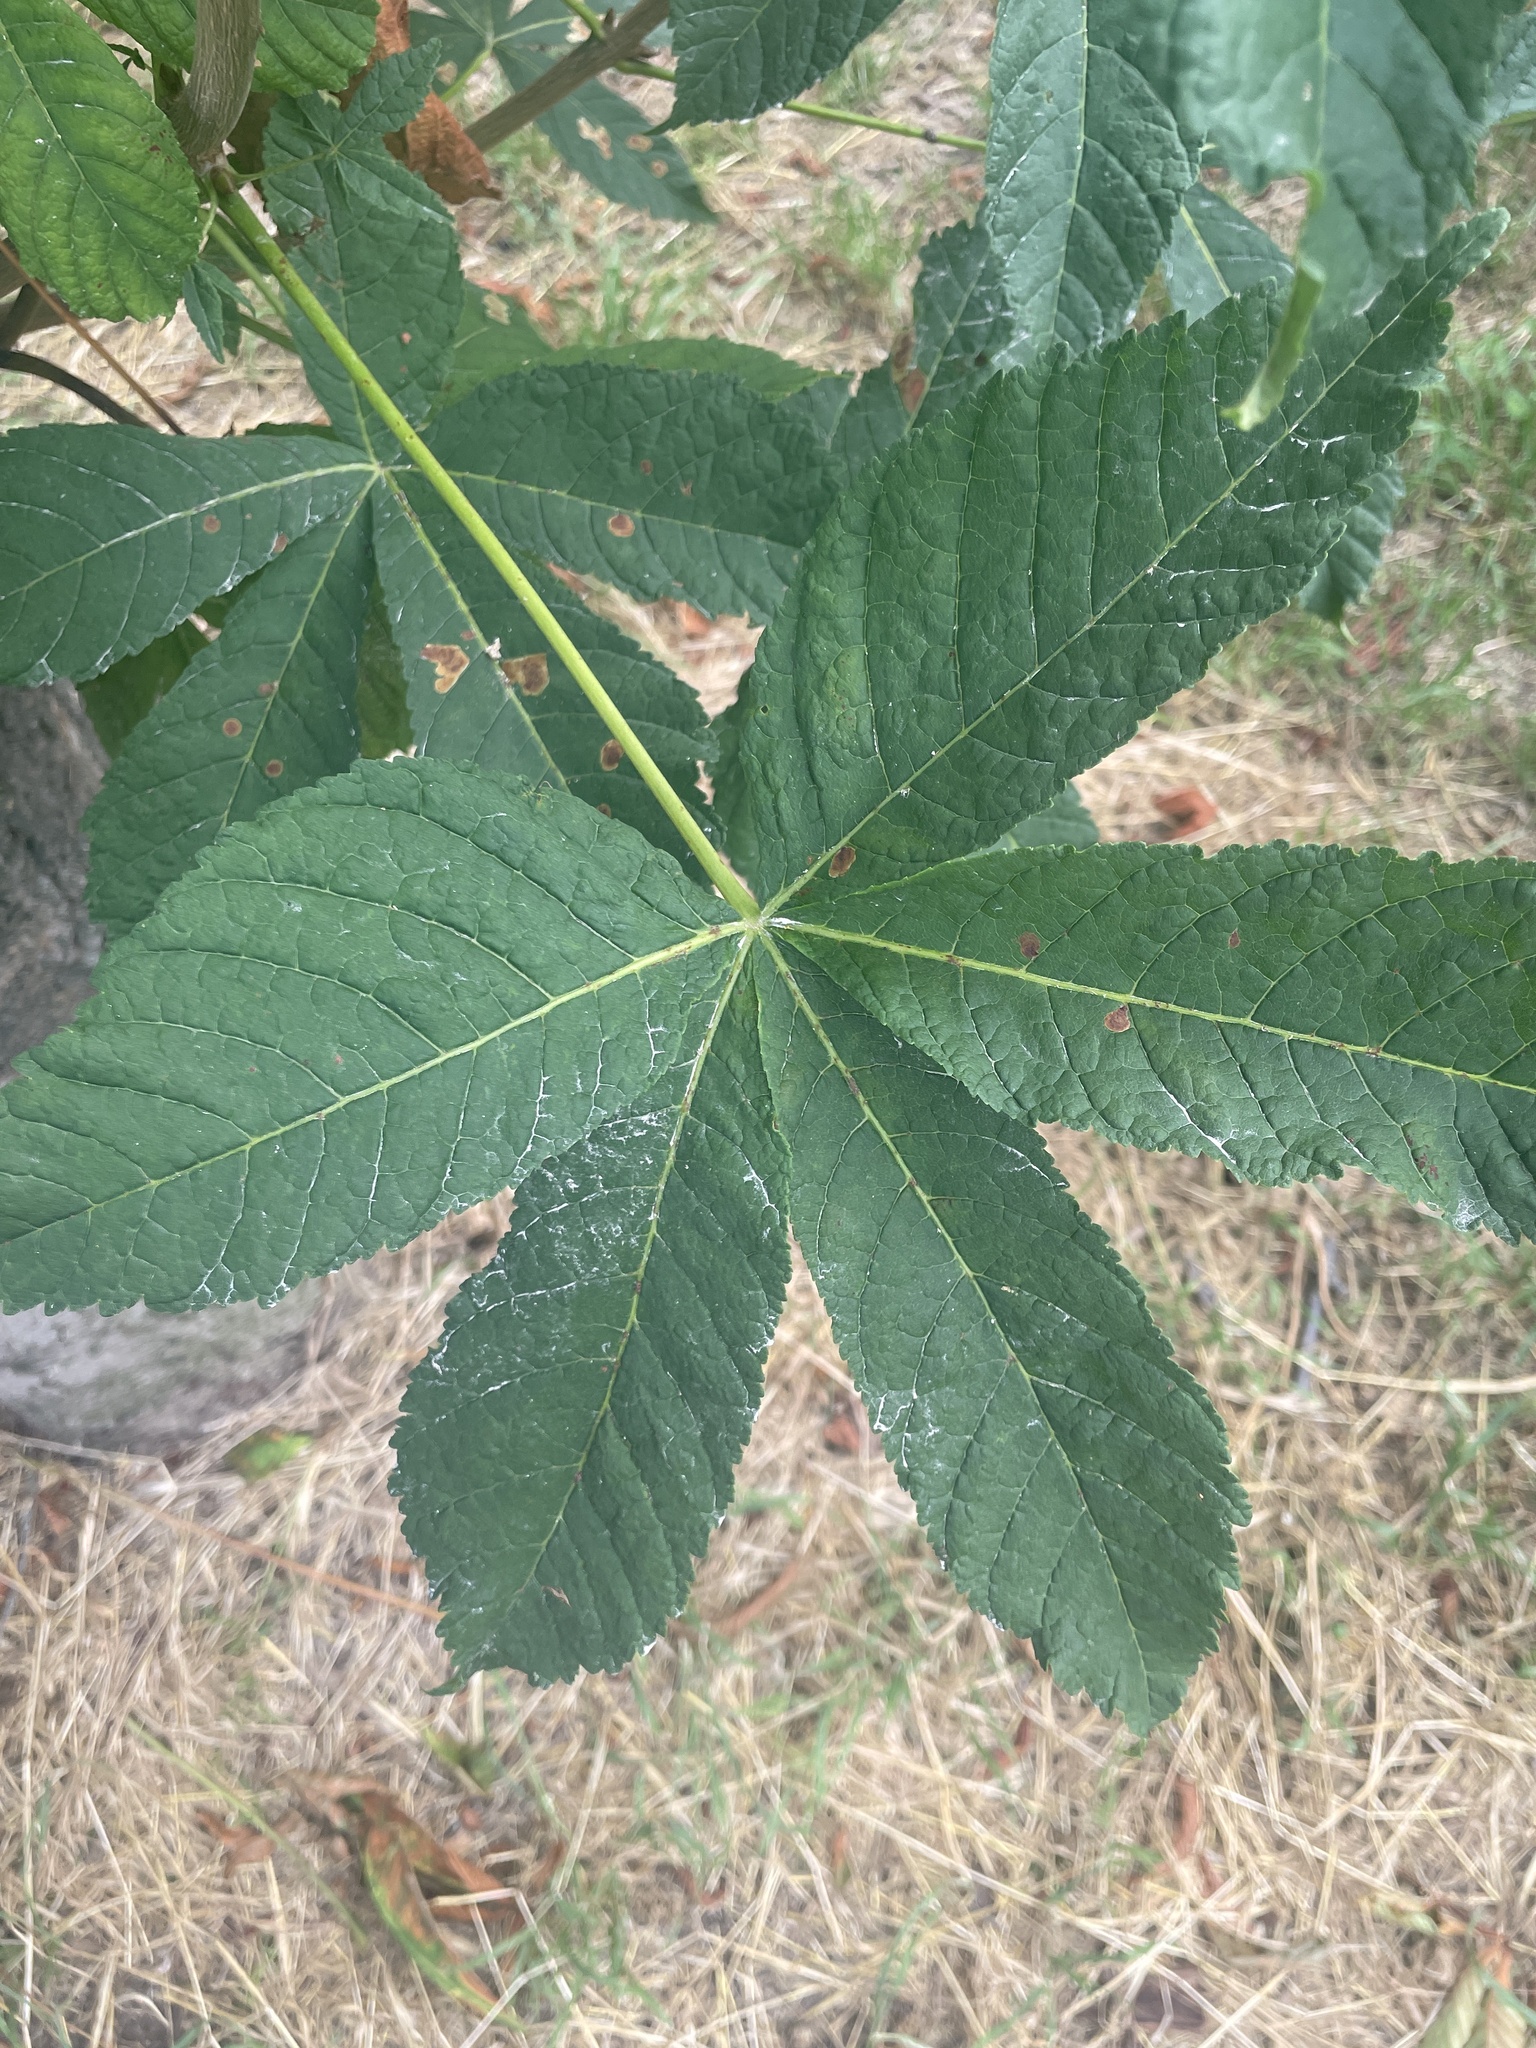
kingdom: Plantae
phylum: Tracheophyta
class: Magnoliopsida
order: Sapindales
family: Sapindaceae
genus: Aesculus
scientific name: Aesculus hippocastanum
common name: Horse-chestnut
